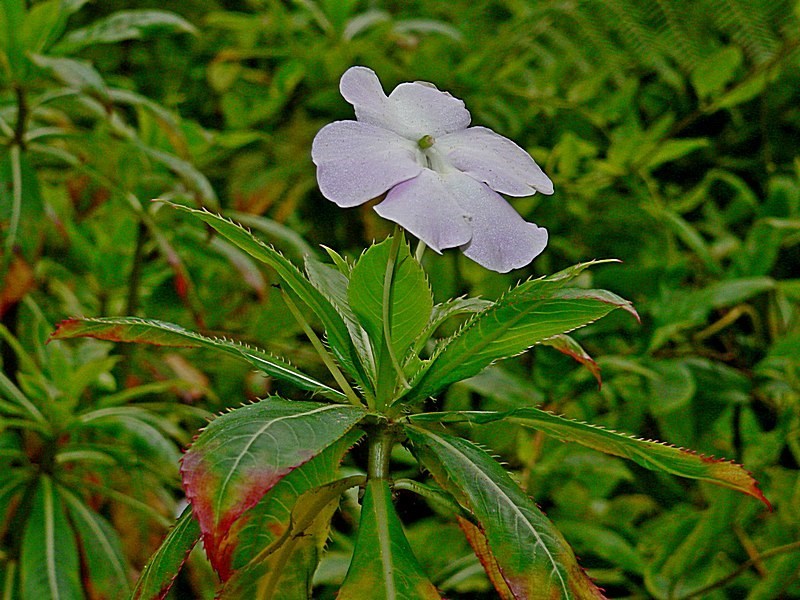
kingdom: Plantae
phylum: Tracheophyta
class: Magnoliopsida
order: Ericales
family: Balsaminaceae
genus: Impatiens
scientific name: Impatiens sodenii
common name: Oliver's touch-me-not
